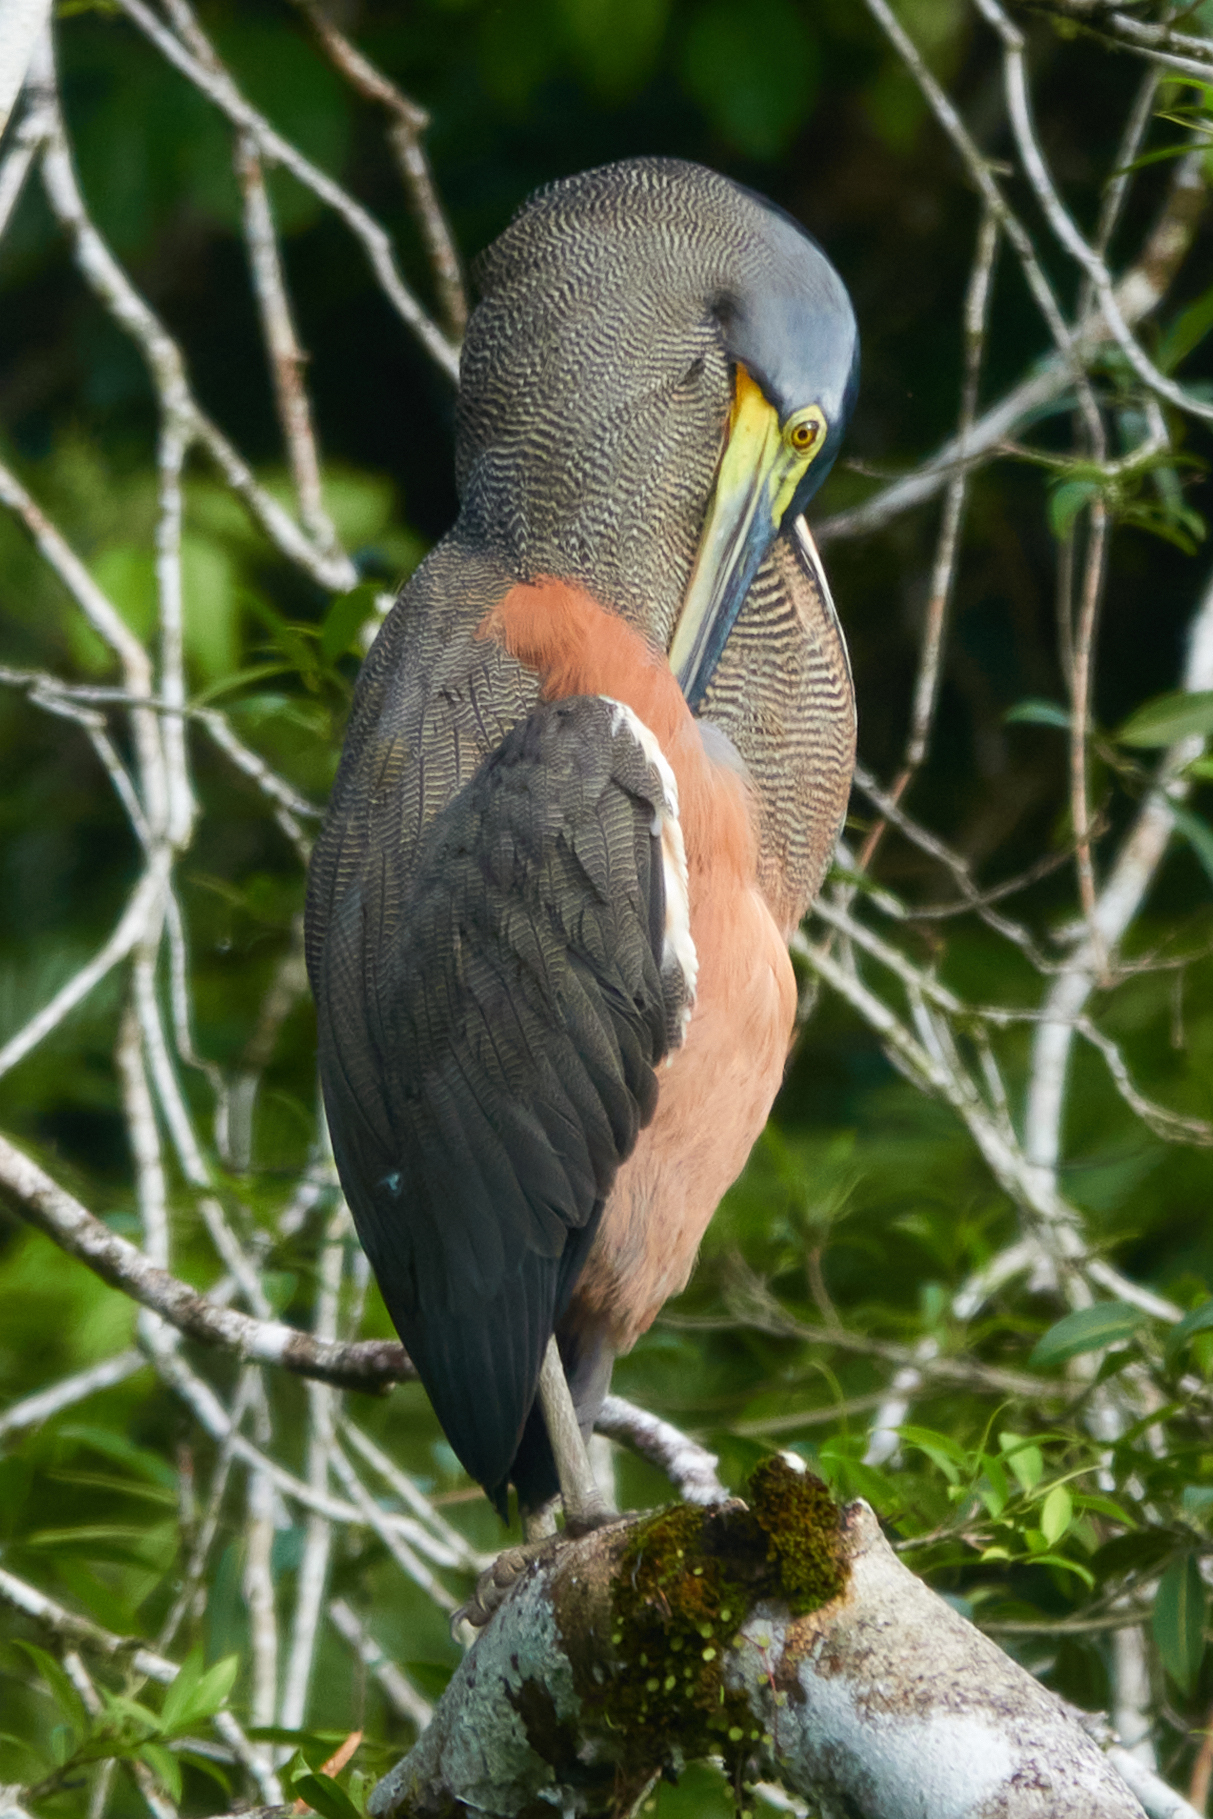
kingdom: Animalia
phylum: Chordata
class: Aves
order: Pelecaniformes
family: Ardeidae
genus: Tigrisoma
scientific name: Tigrisoma mexicanum
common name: Bare-throated tiger-heron
